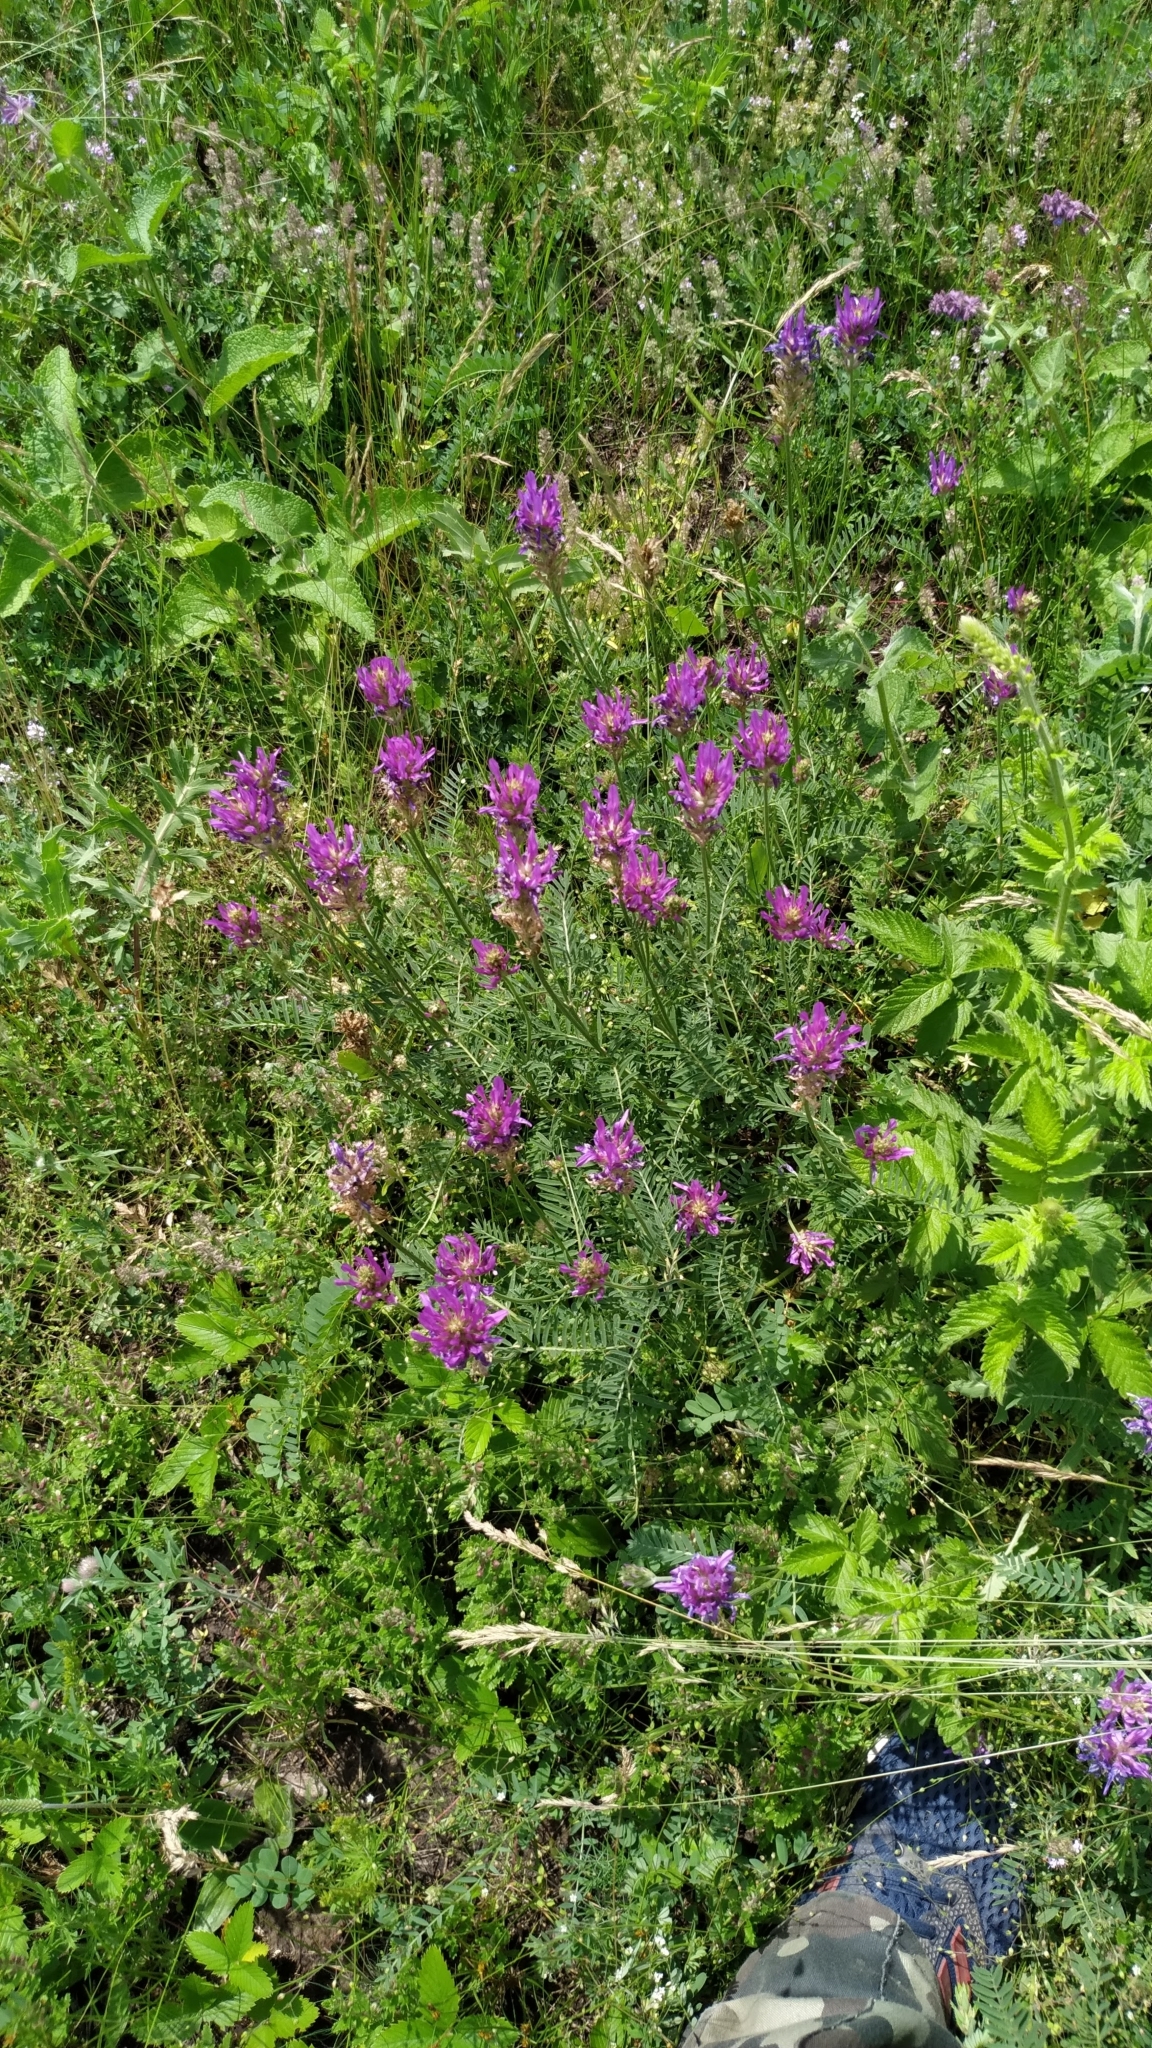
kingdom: Plantae
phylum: Tracheophyta
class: Magnoliopsida
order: Fabales
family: Fabaceae
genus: Astragalus
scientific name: Astragalus onobrychis
